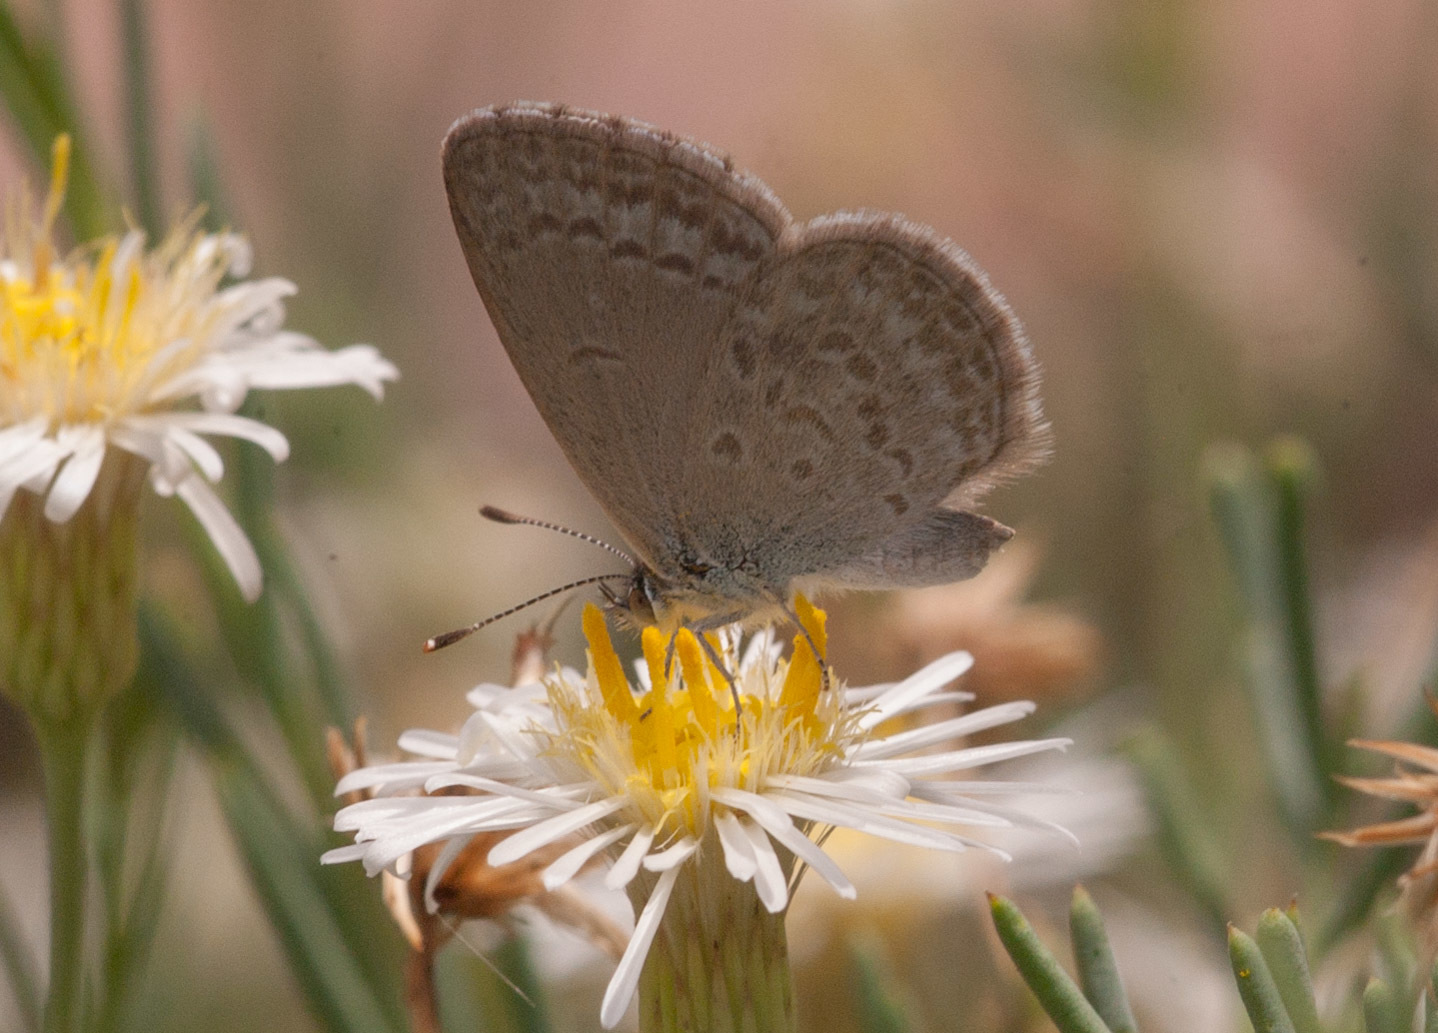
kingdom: Animalia
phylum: Arthropoda
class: Insecta
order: Lepidoptera
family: Lycaenidae
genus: Zizina
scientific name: Zizina labradus
